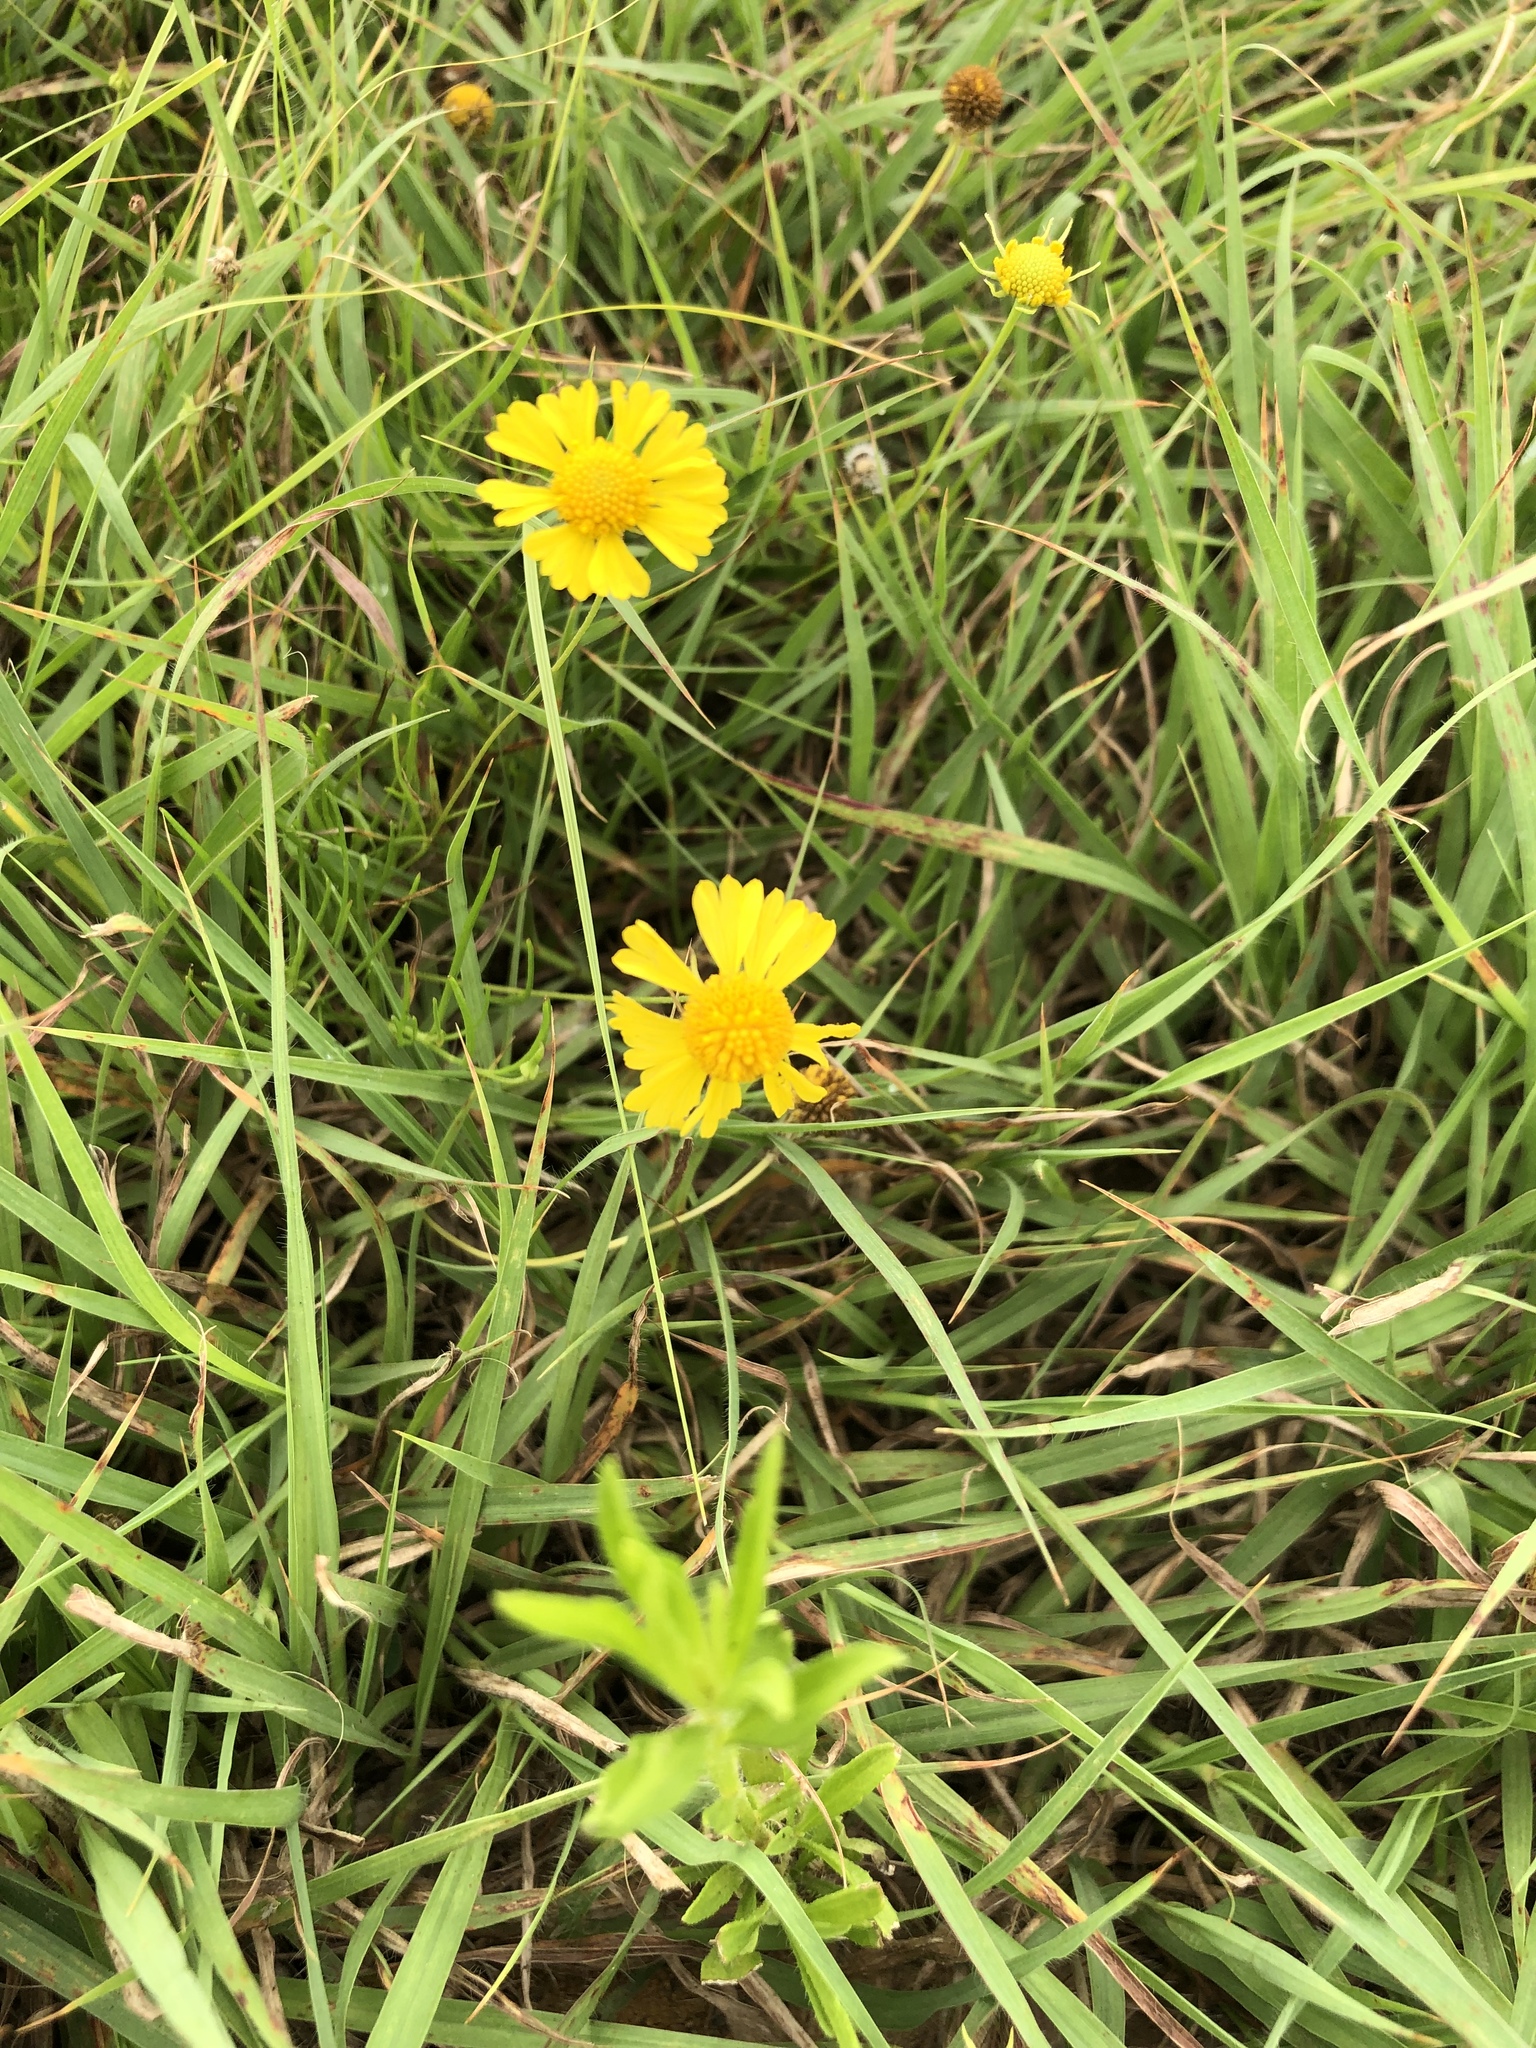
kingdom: Plantae
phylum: Tracheophyta
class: Magnoliopsida
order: Asterales
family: Asteraceae
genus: Helenium
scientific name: Helenium amarum
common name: Bitter sneezeweed
